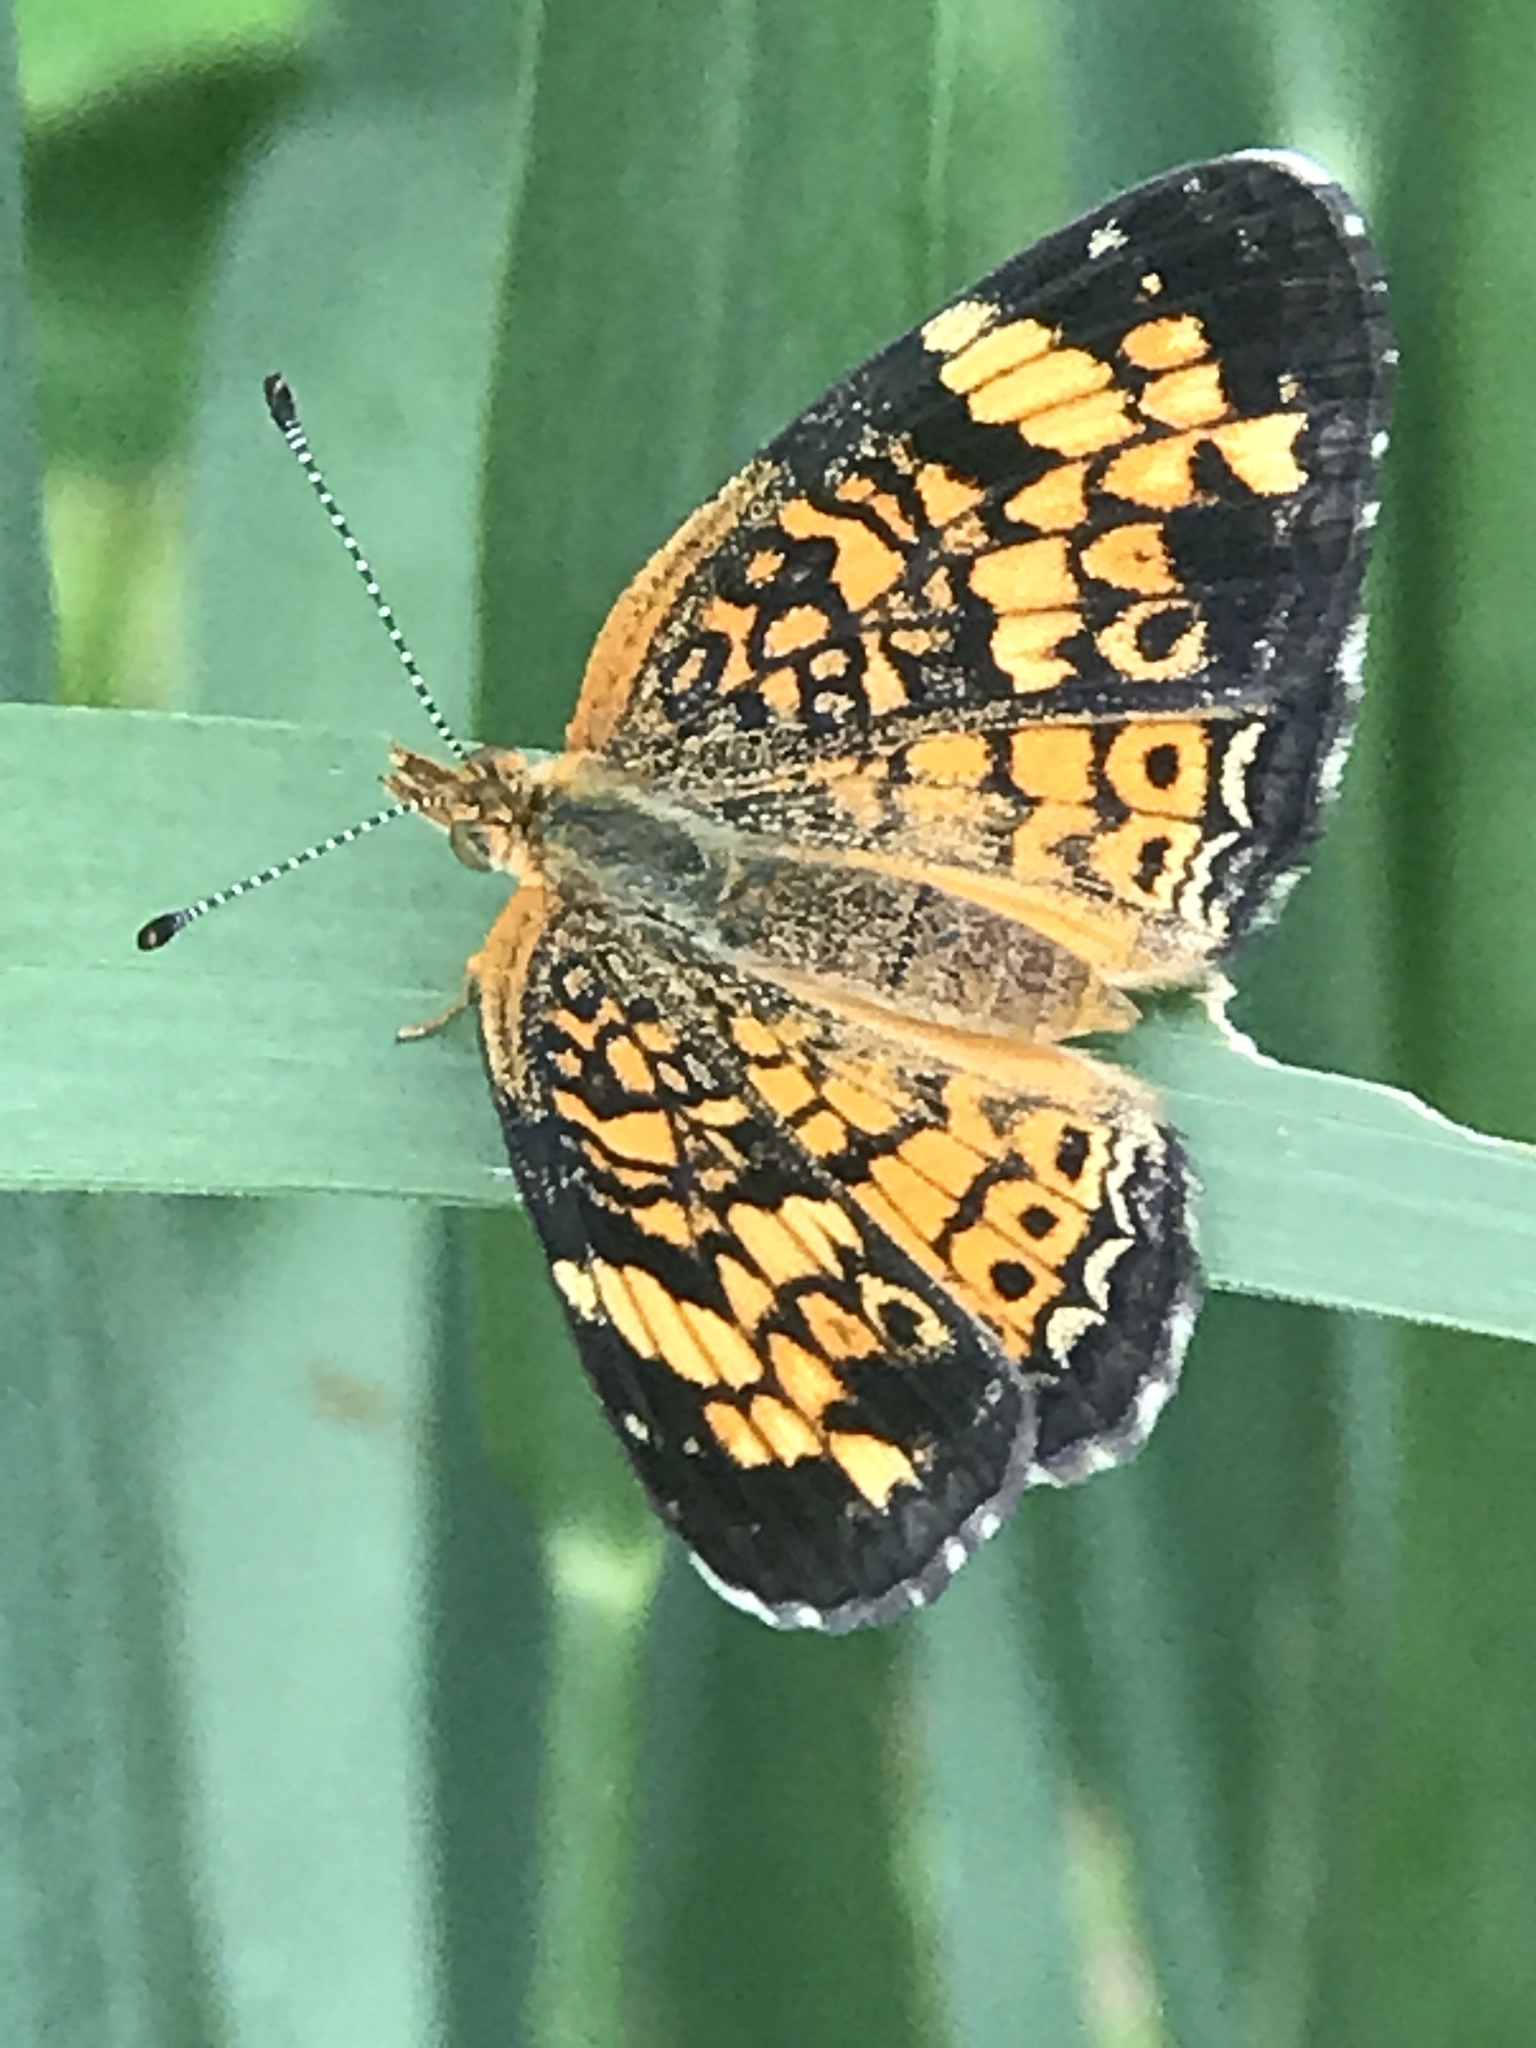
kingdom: Animalia
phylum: Arthropoda
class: Insecta
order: Lepidoptera
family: Nymphalidae
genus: Phyciodes
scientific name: Phyciodes tharos
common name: Pearl crescent
